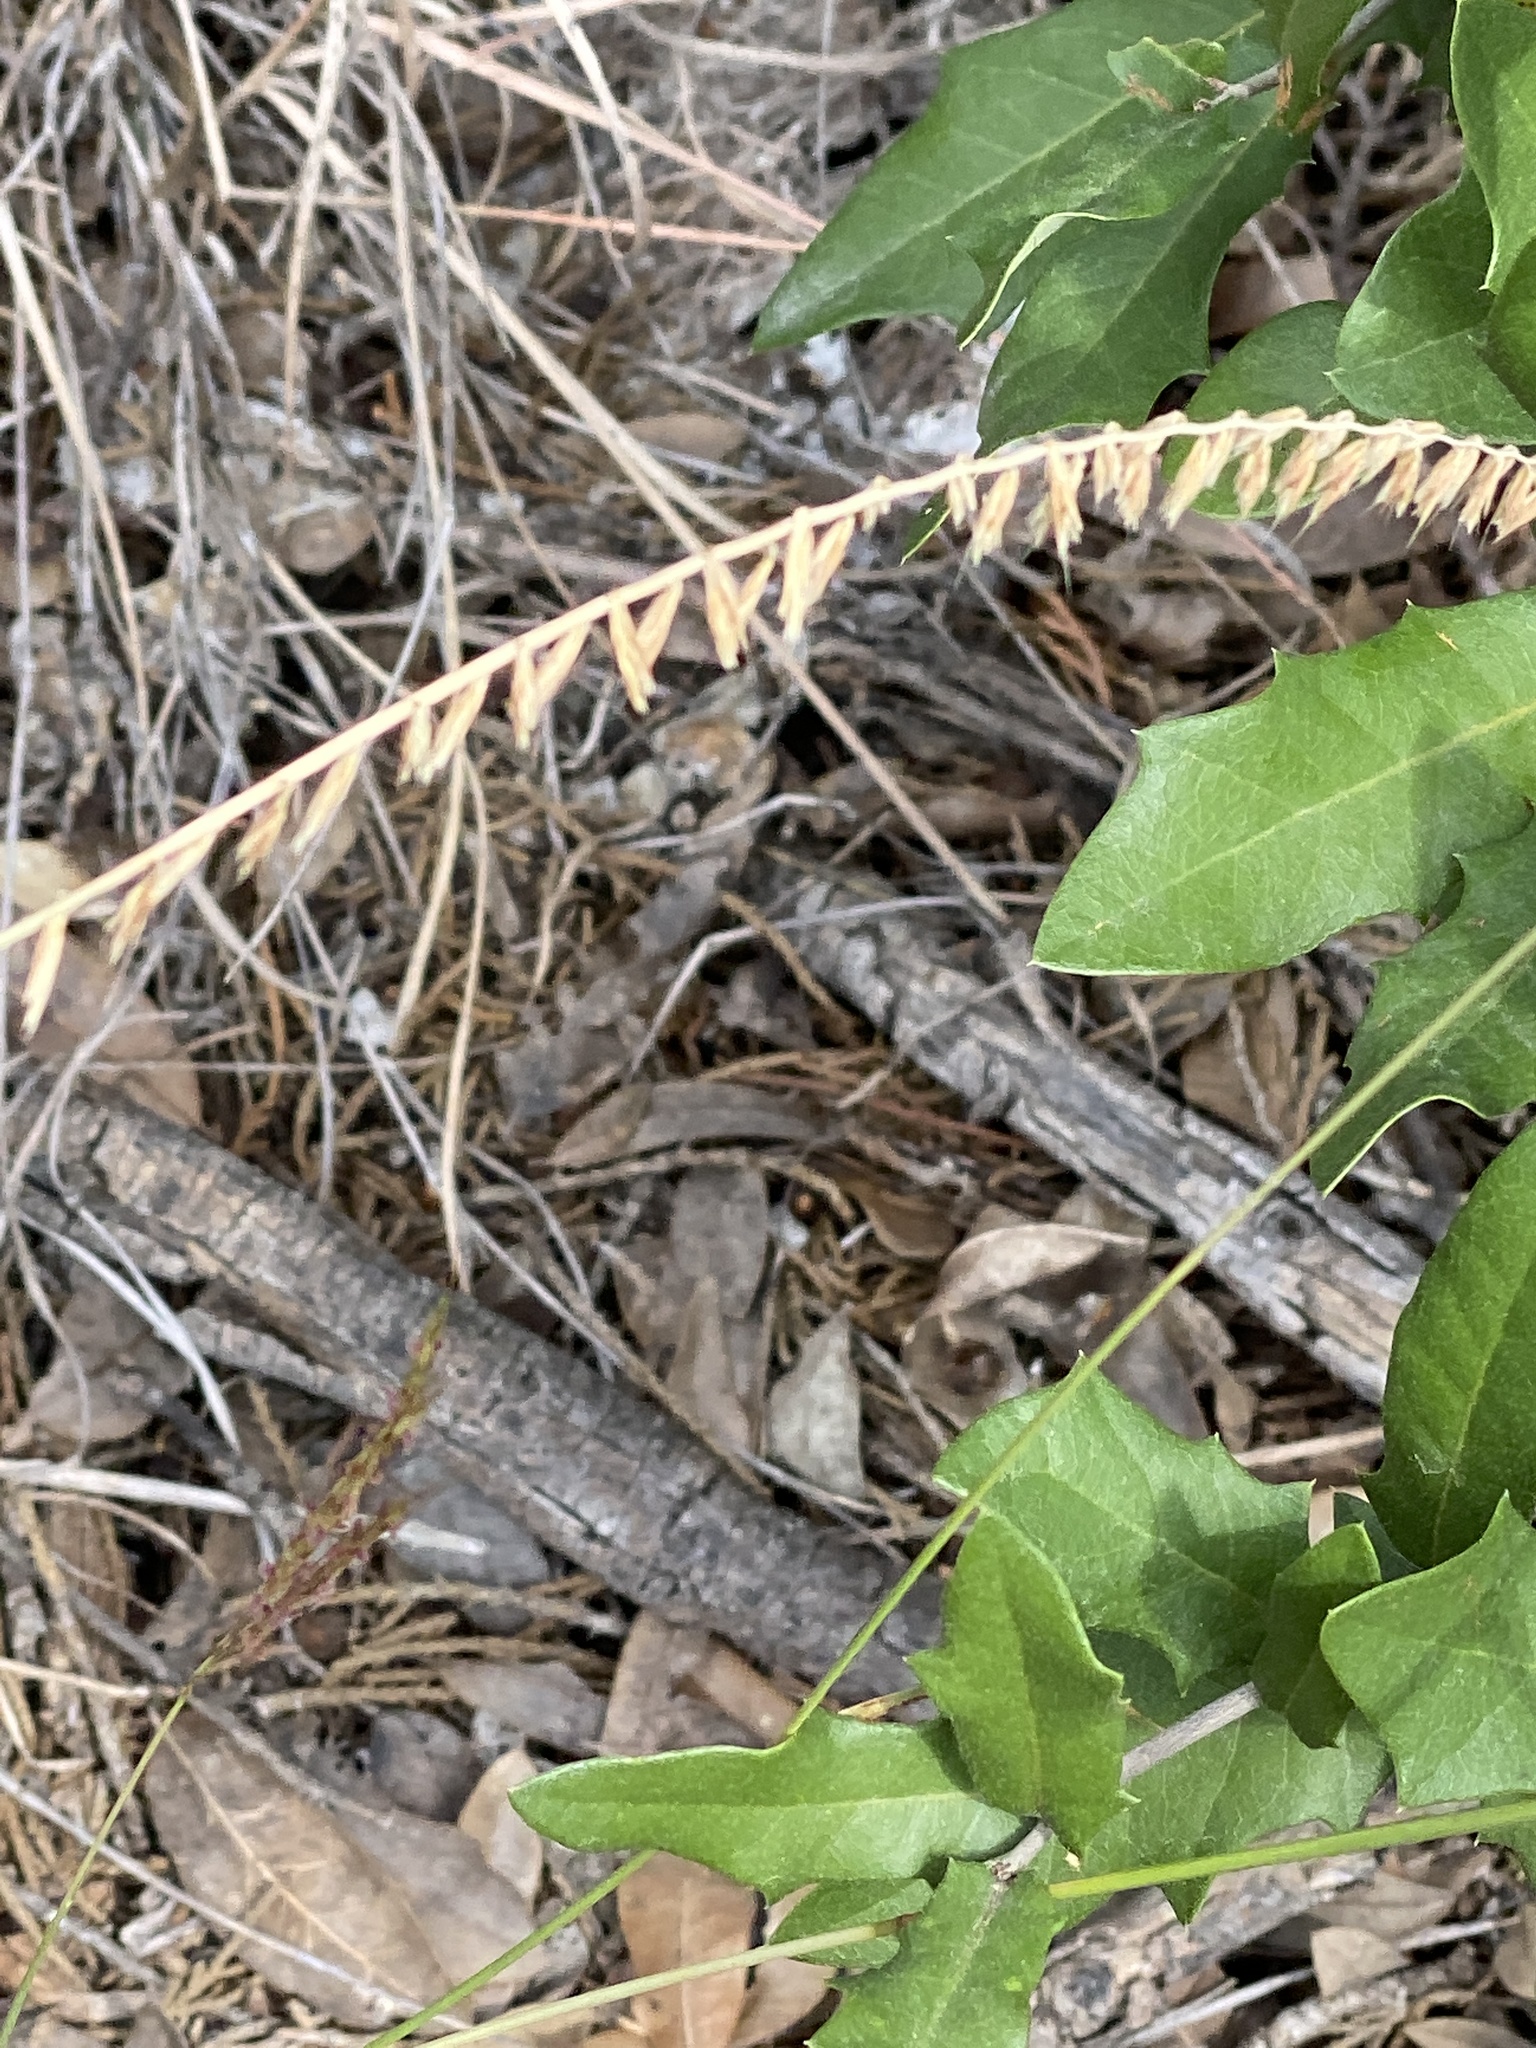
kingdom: Plantae
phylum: Tracheophyta
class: Liliopsida
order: Poales
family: Poaceae
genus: Bouteloua
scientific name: Bouteloua curtipendula
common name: Side-oats grama
